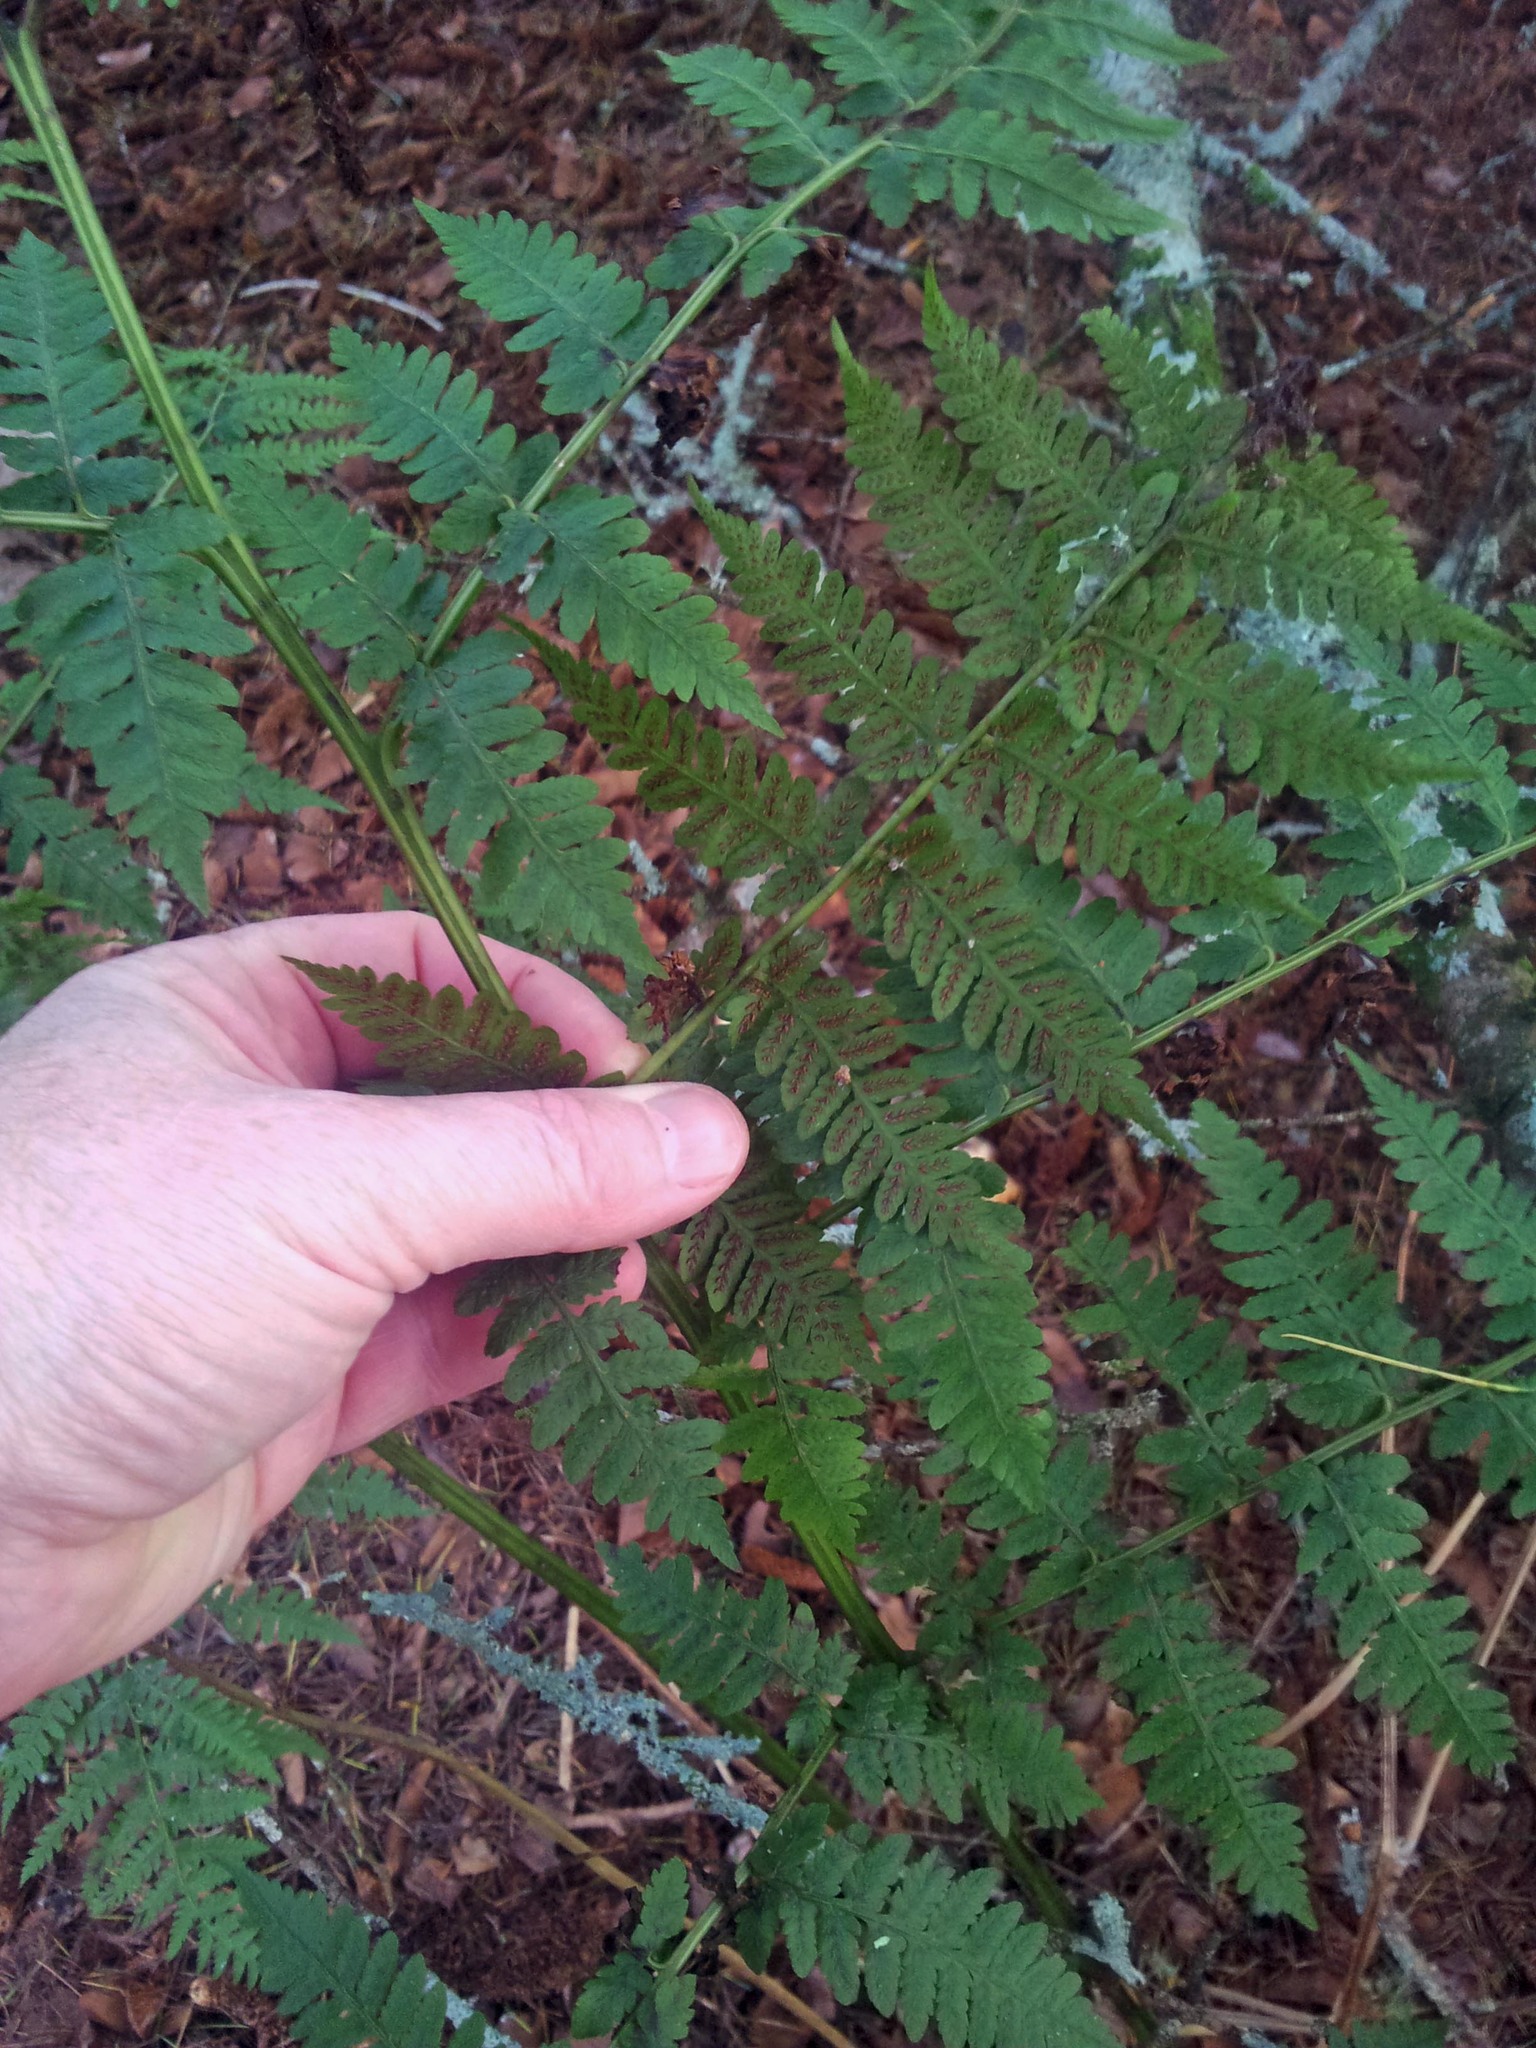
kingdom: Plantae
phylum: Tracheophyta
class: Polypodiopsida
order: Polypodiales
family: Athyriaceae
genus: Diplazium
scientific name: Diplazium australe
